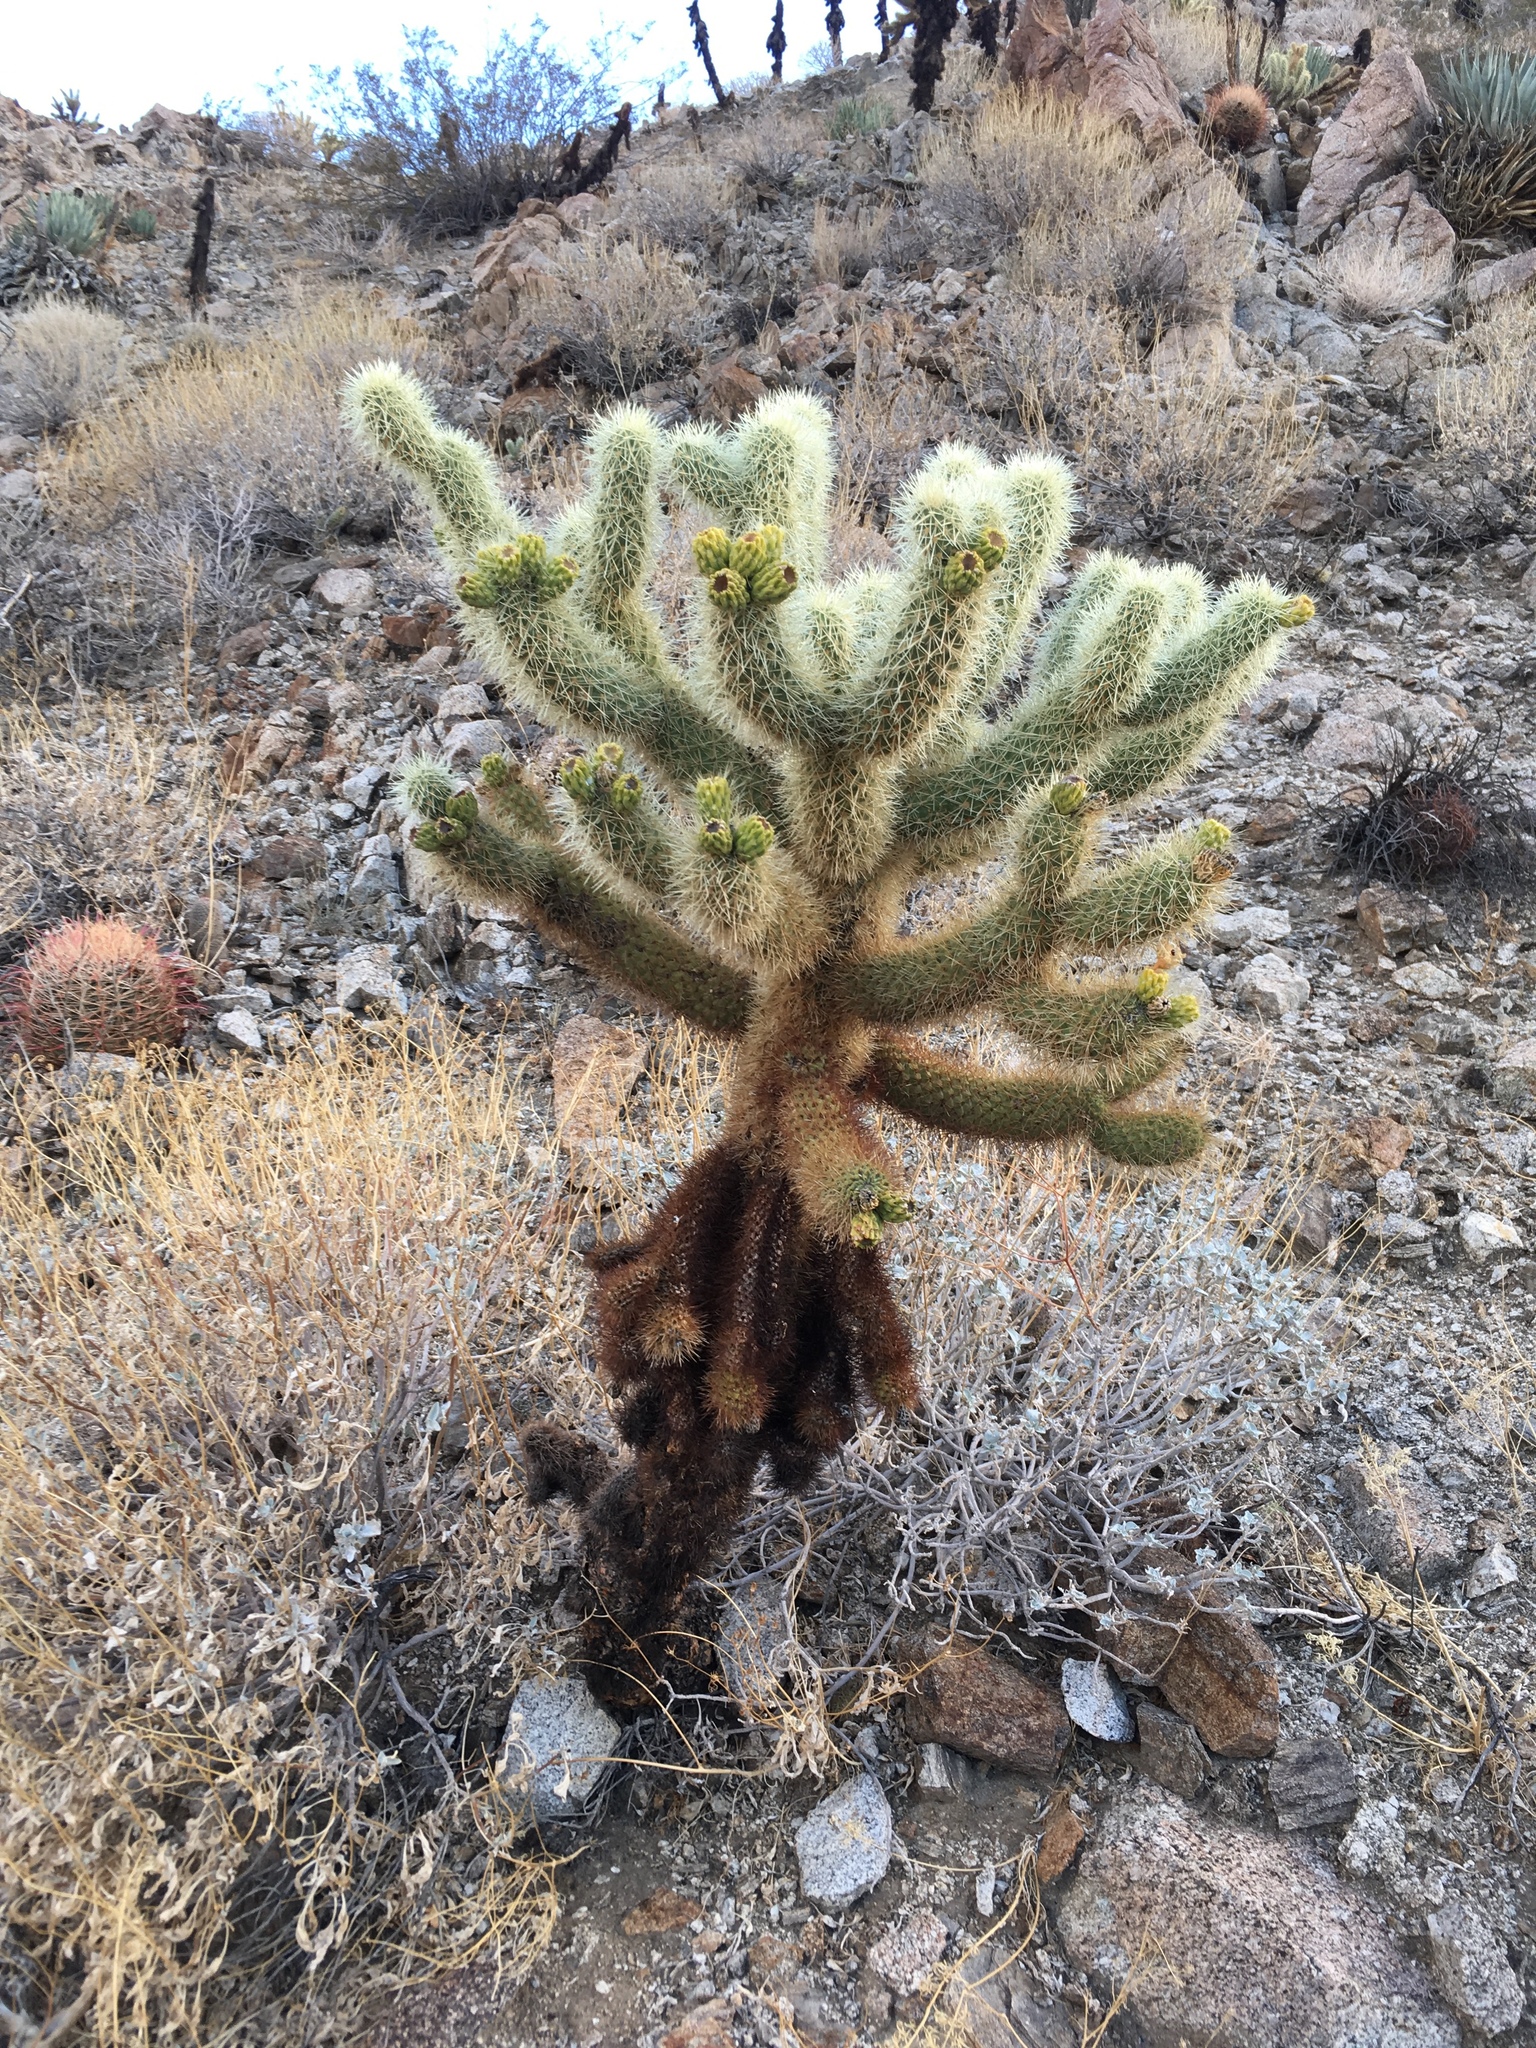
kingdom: Plantae
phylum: Tracheophyta
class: Magnoliopsida
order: Caryophyllales
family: Cactaceae
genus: Cylindropuntia
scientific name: Cylindropuntia fosbergii
